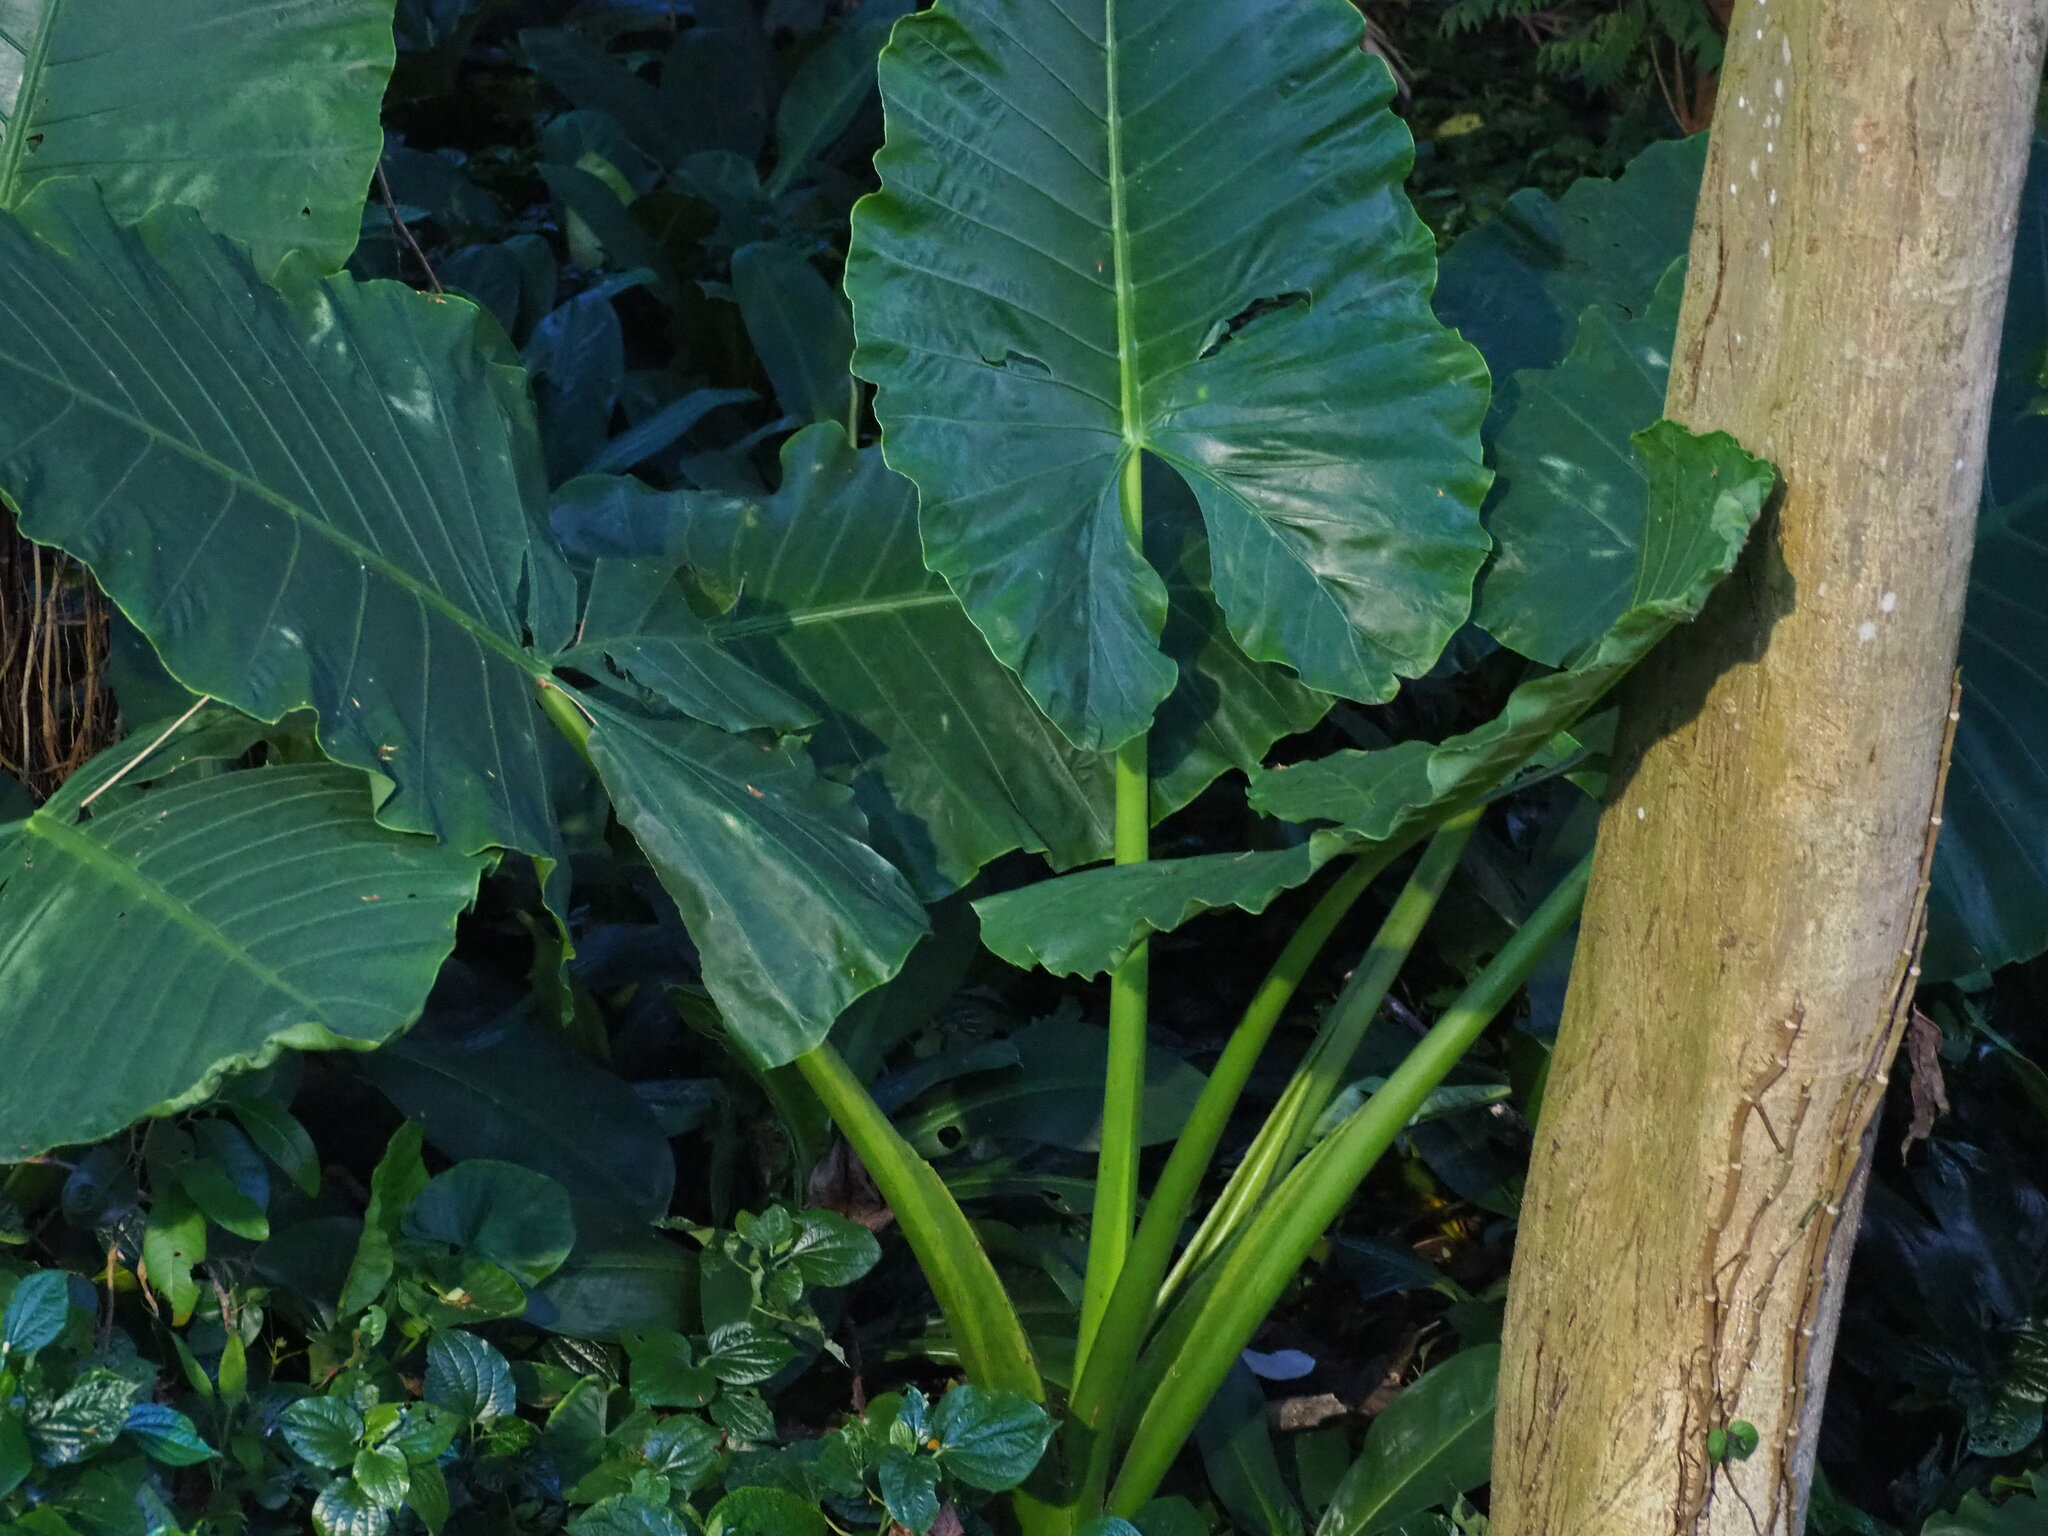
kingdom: Plantae
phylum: Tracheophyta
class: Liliopsida
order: Alismatales
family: Araceae
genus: Alocasia
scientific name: Alocasia macrorrhizos
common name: Giant taro
